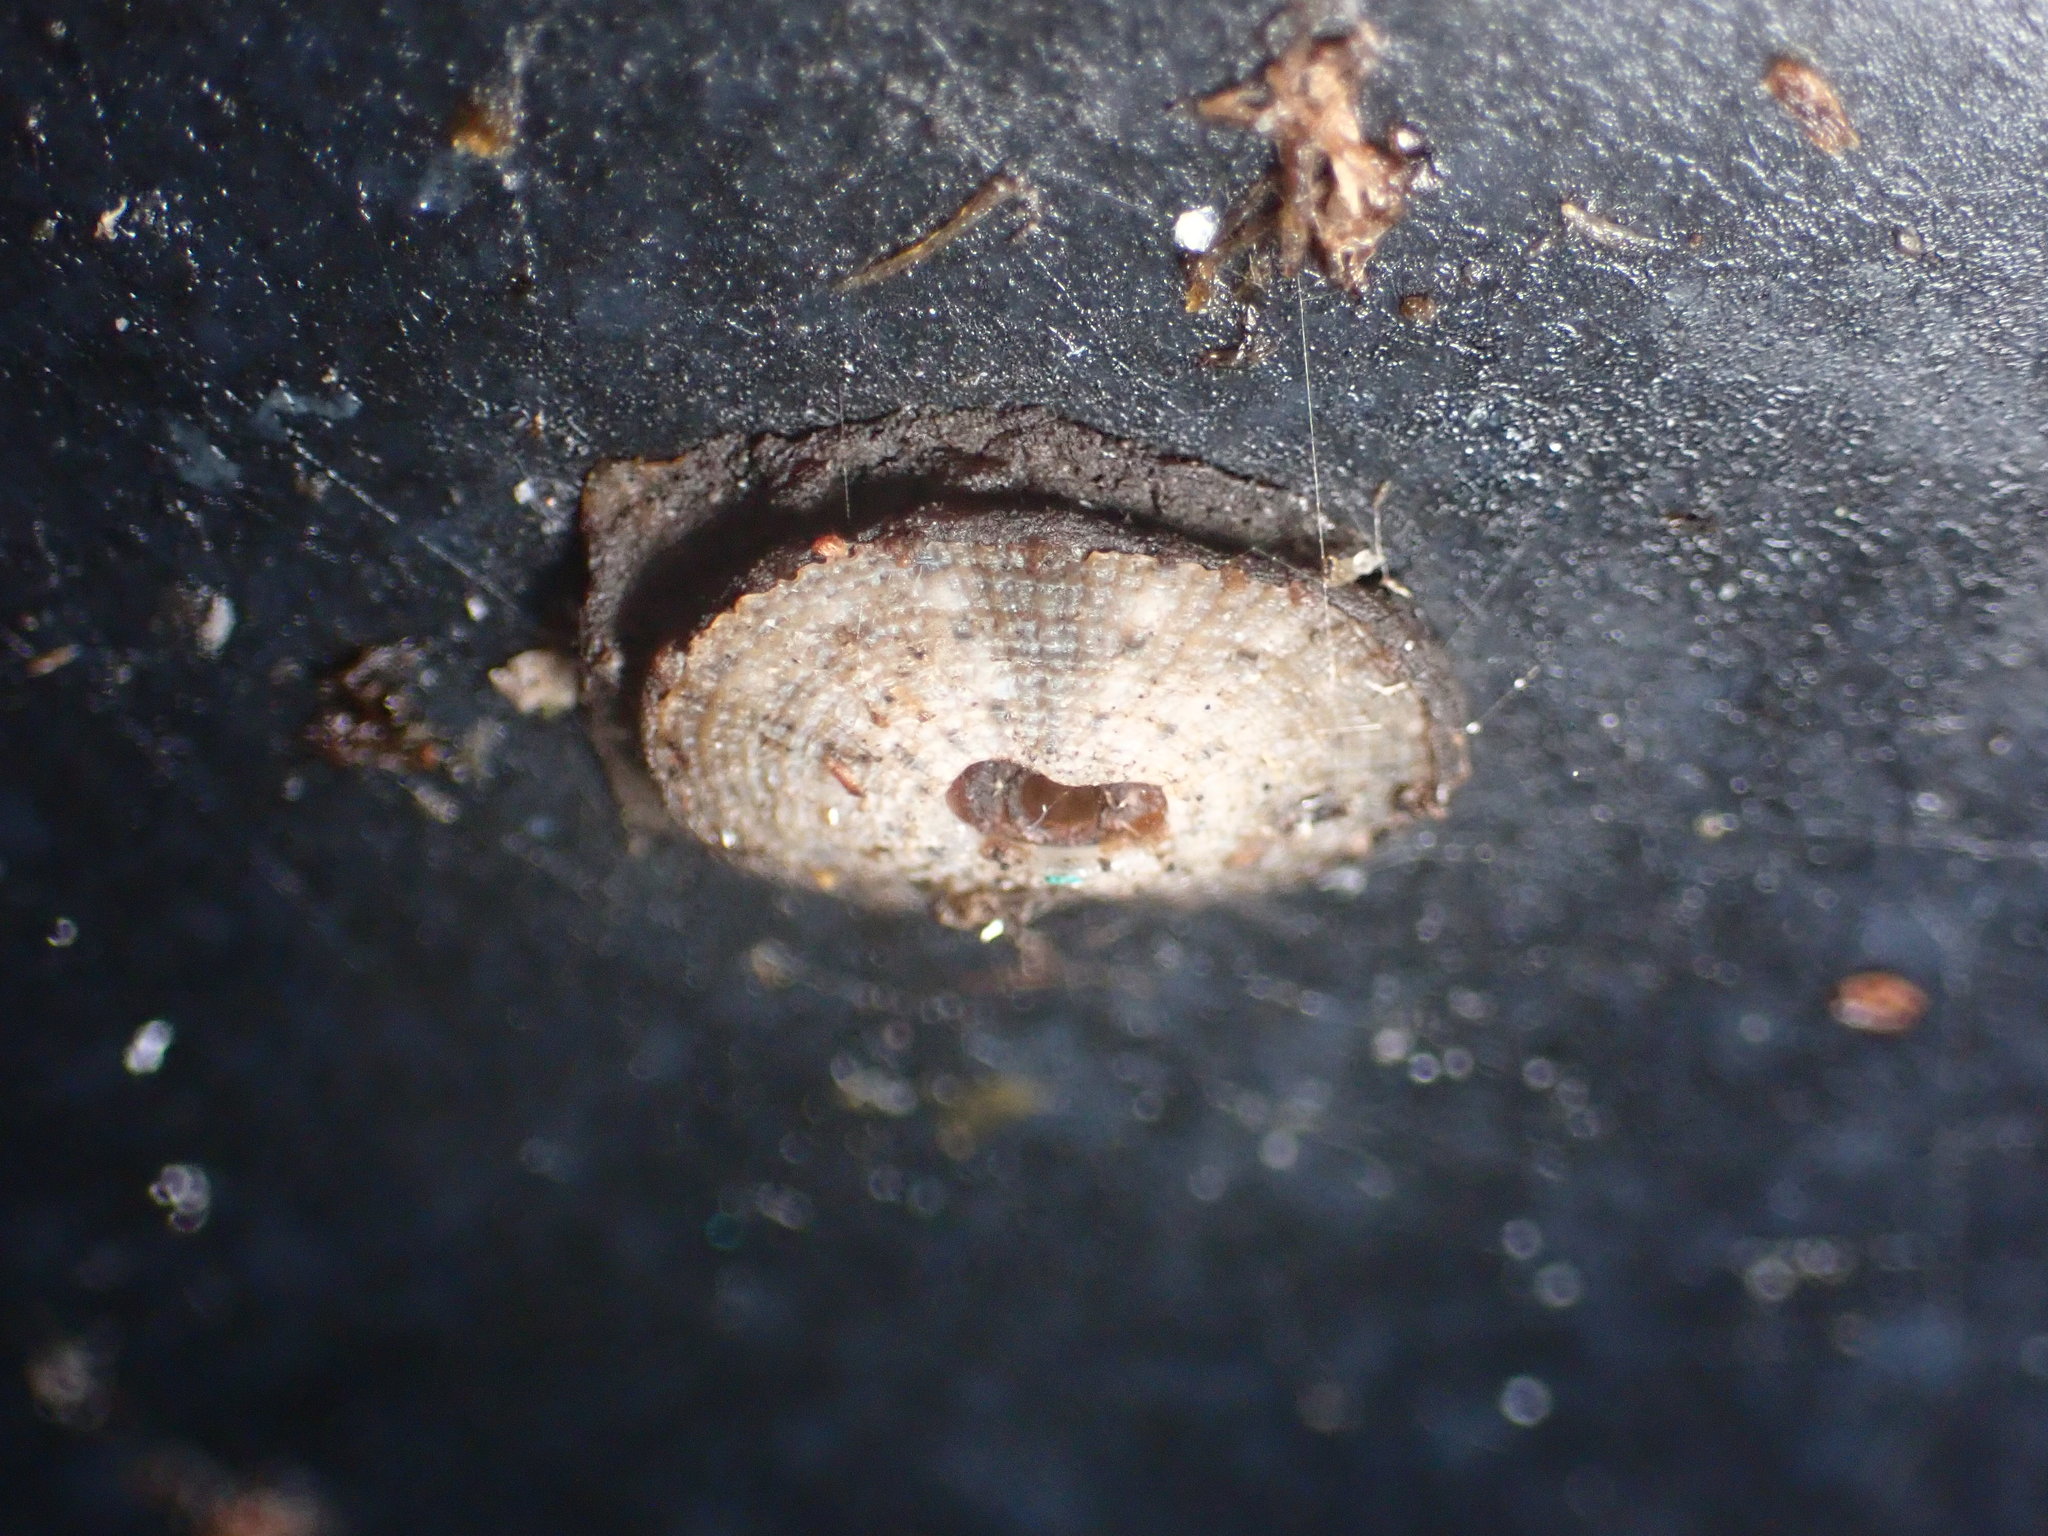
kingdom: Animalia
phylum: Mollusca
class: Gastropoda
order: Lepetellida
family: Fissurellidae
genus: Fissurellidea
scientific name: Fissurellidea bimaculata
